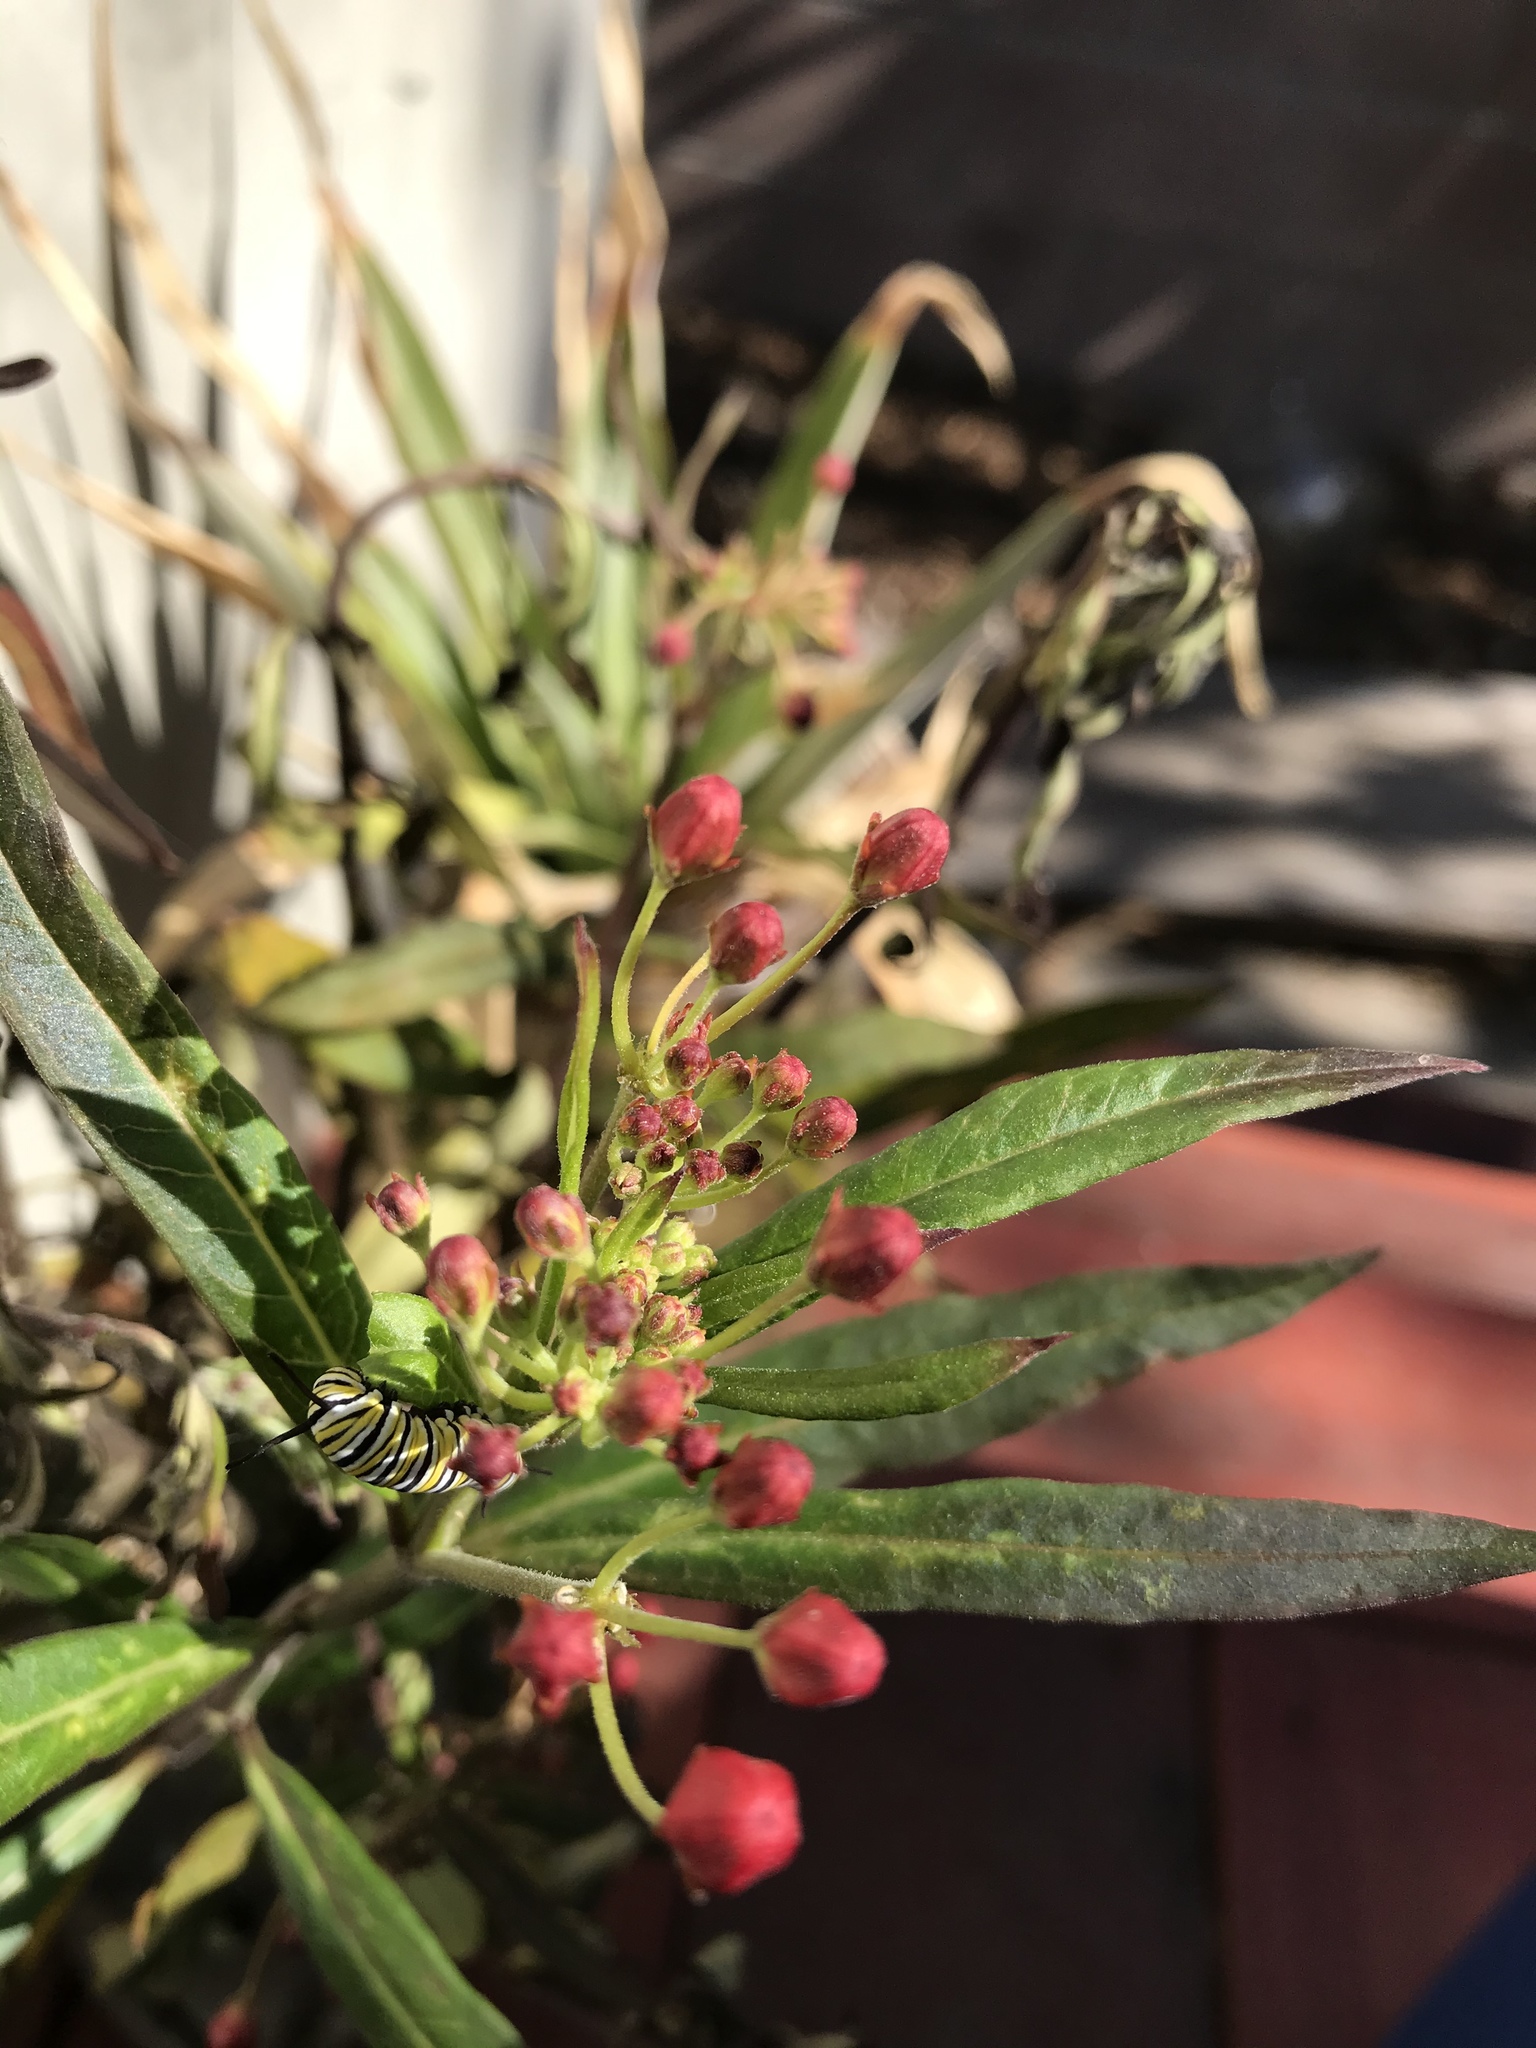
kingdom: Animalia
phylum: Arthropoda
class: Insecta
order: Lepidoptera
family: Nymphalidae
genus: Danaus
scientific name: Danaus plexippus
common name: Monarch
